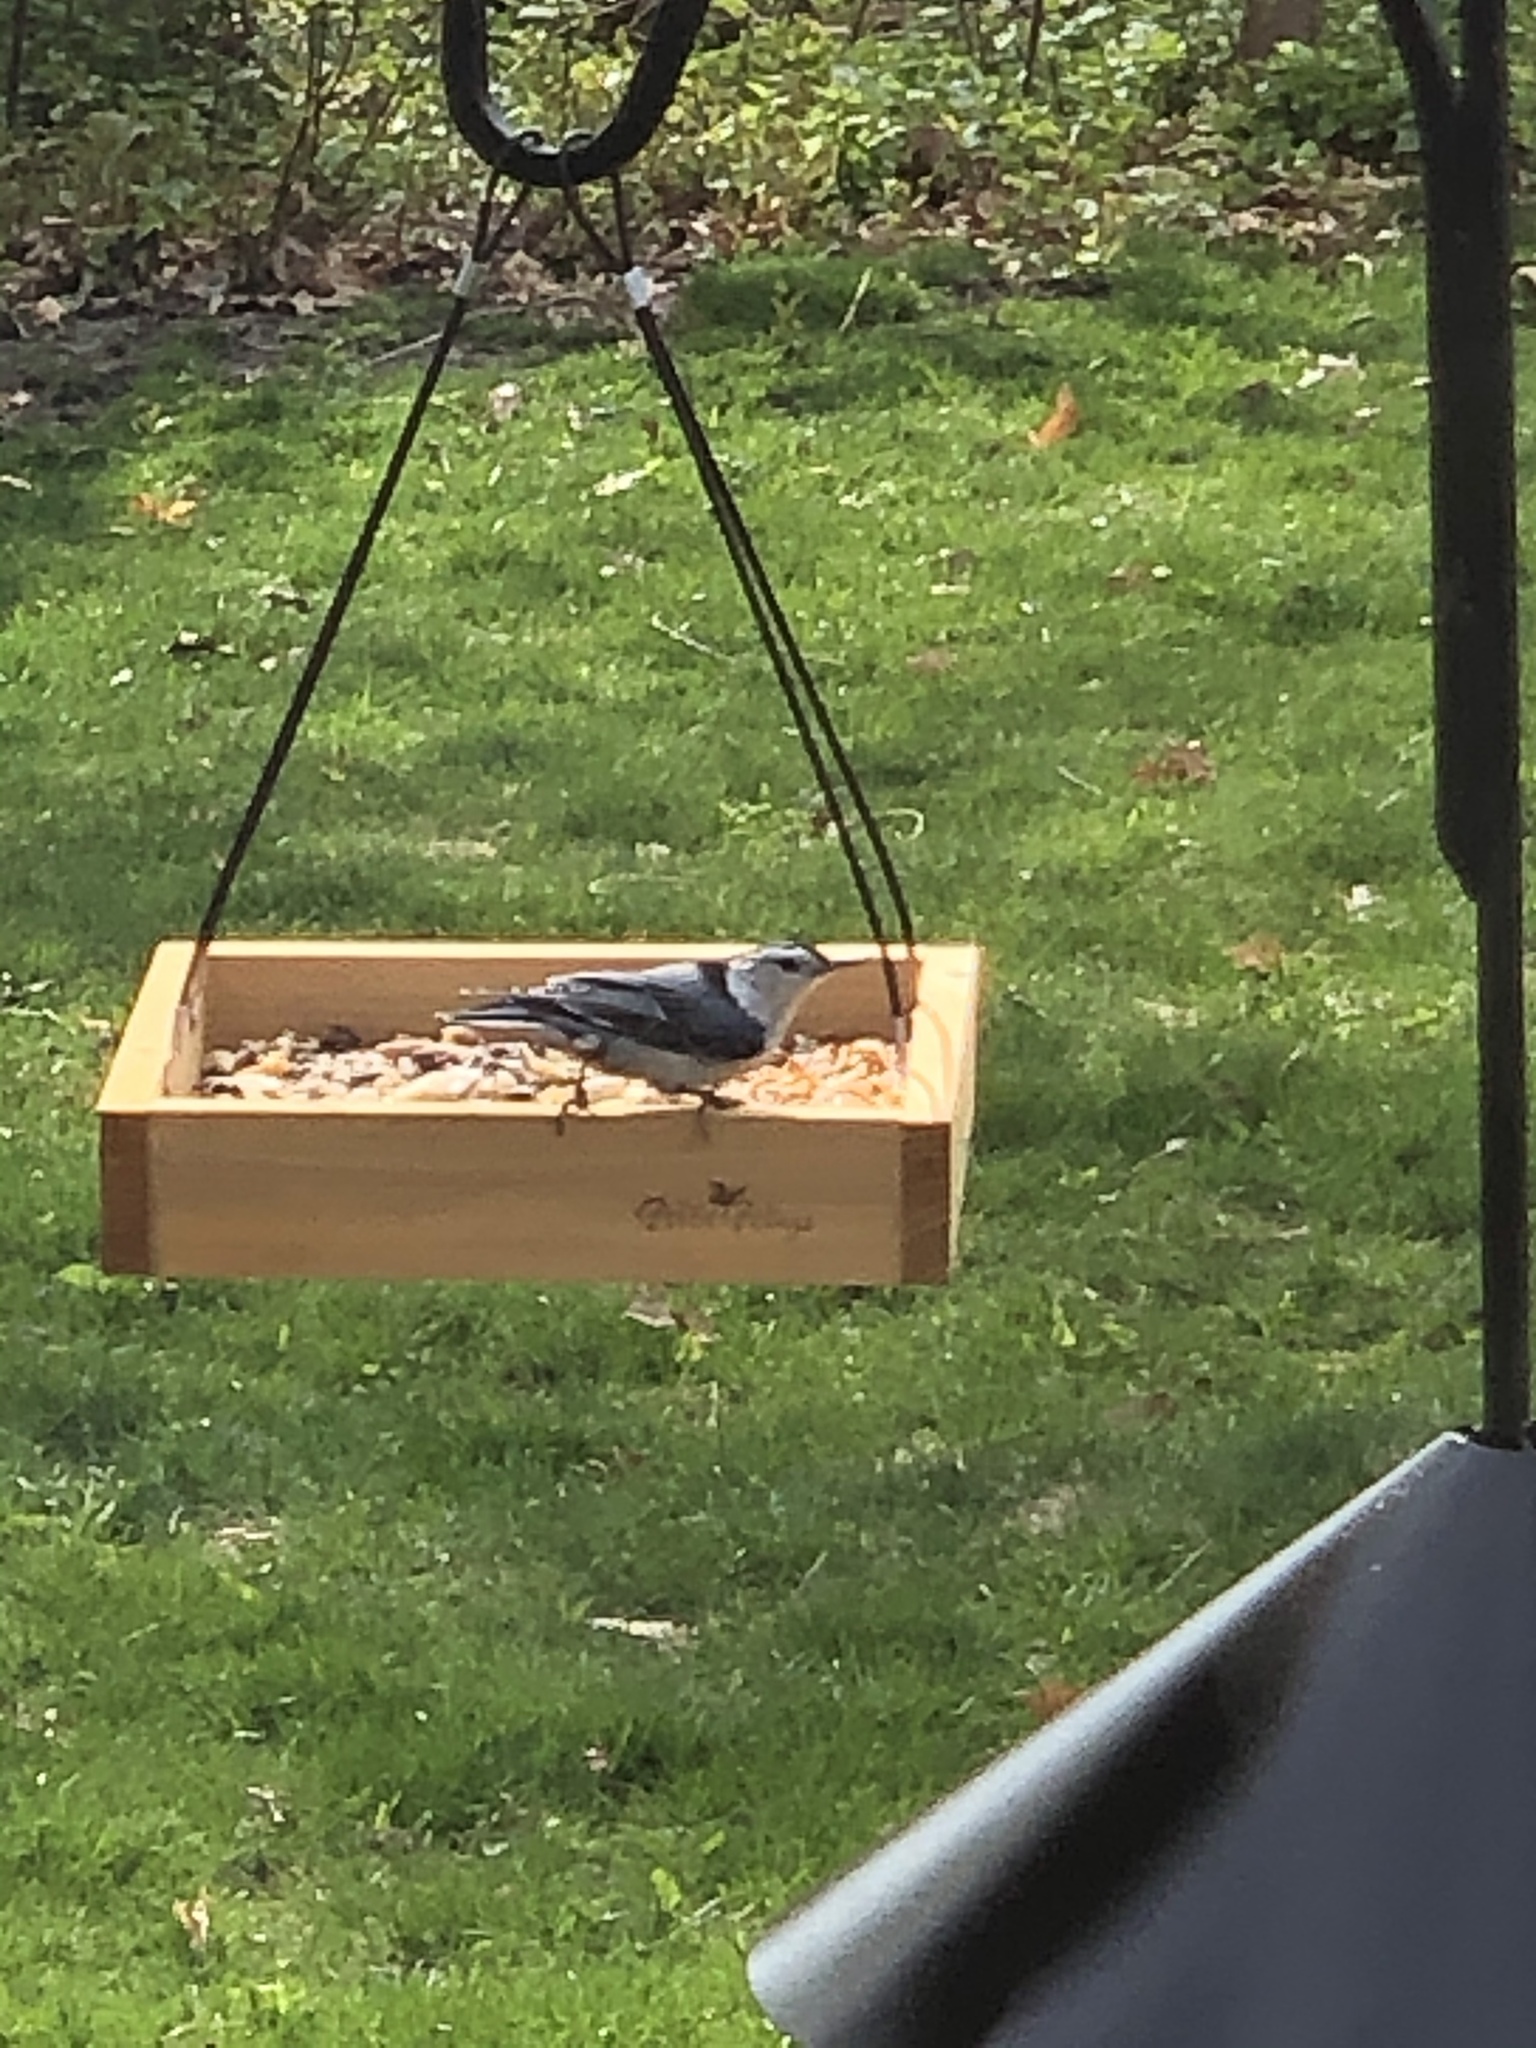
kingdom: Animalia
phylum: Chordata
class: Aves
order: Passeriformes
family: Sittidae
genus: Sitta
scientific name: Sitta carolinensis
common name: White-breasted nuthatch
